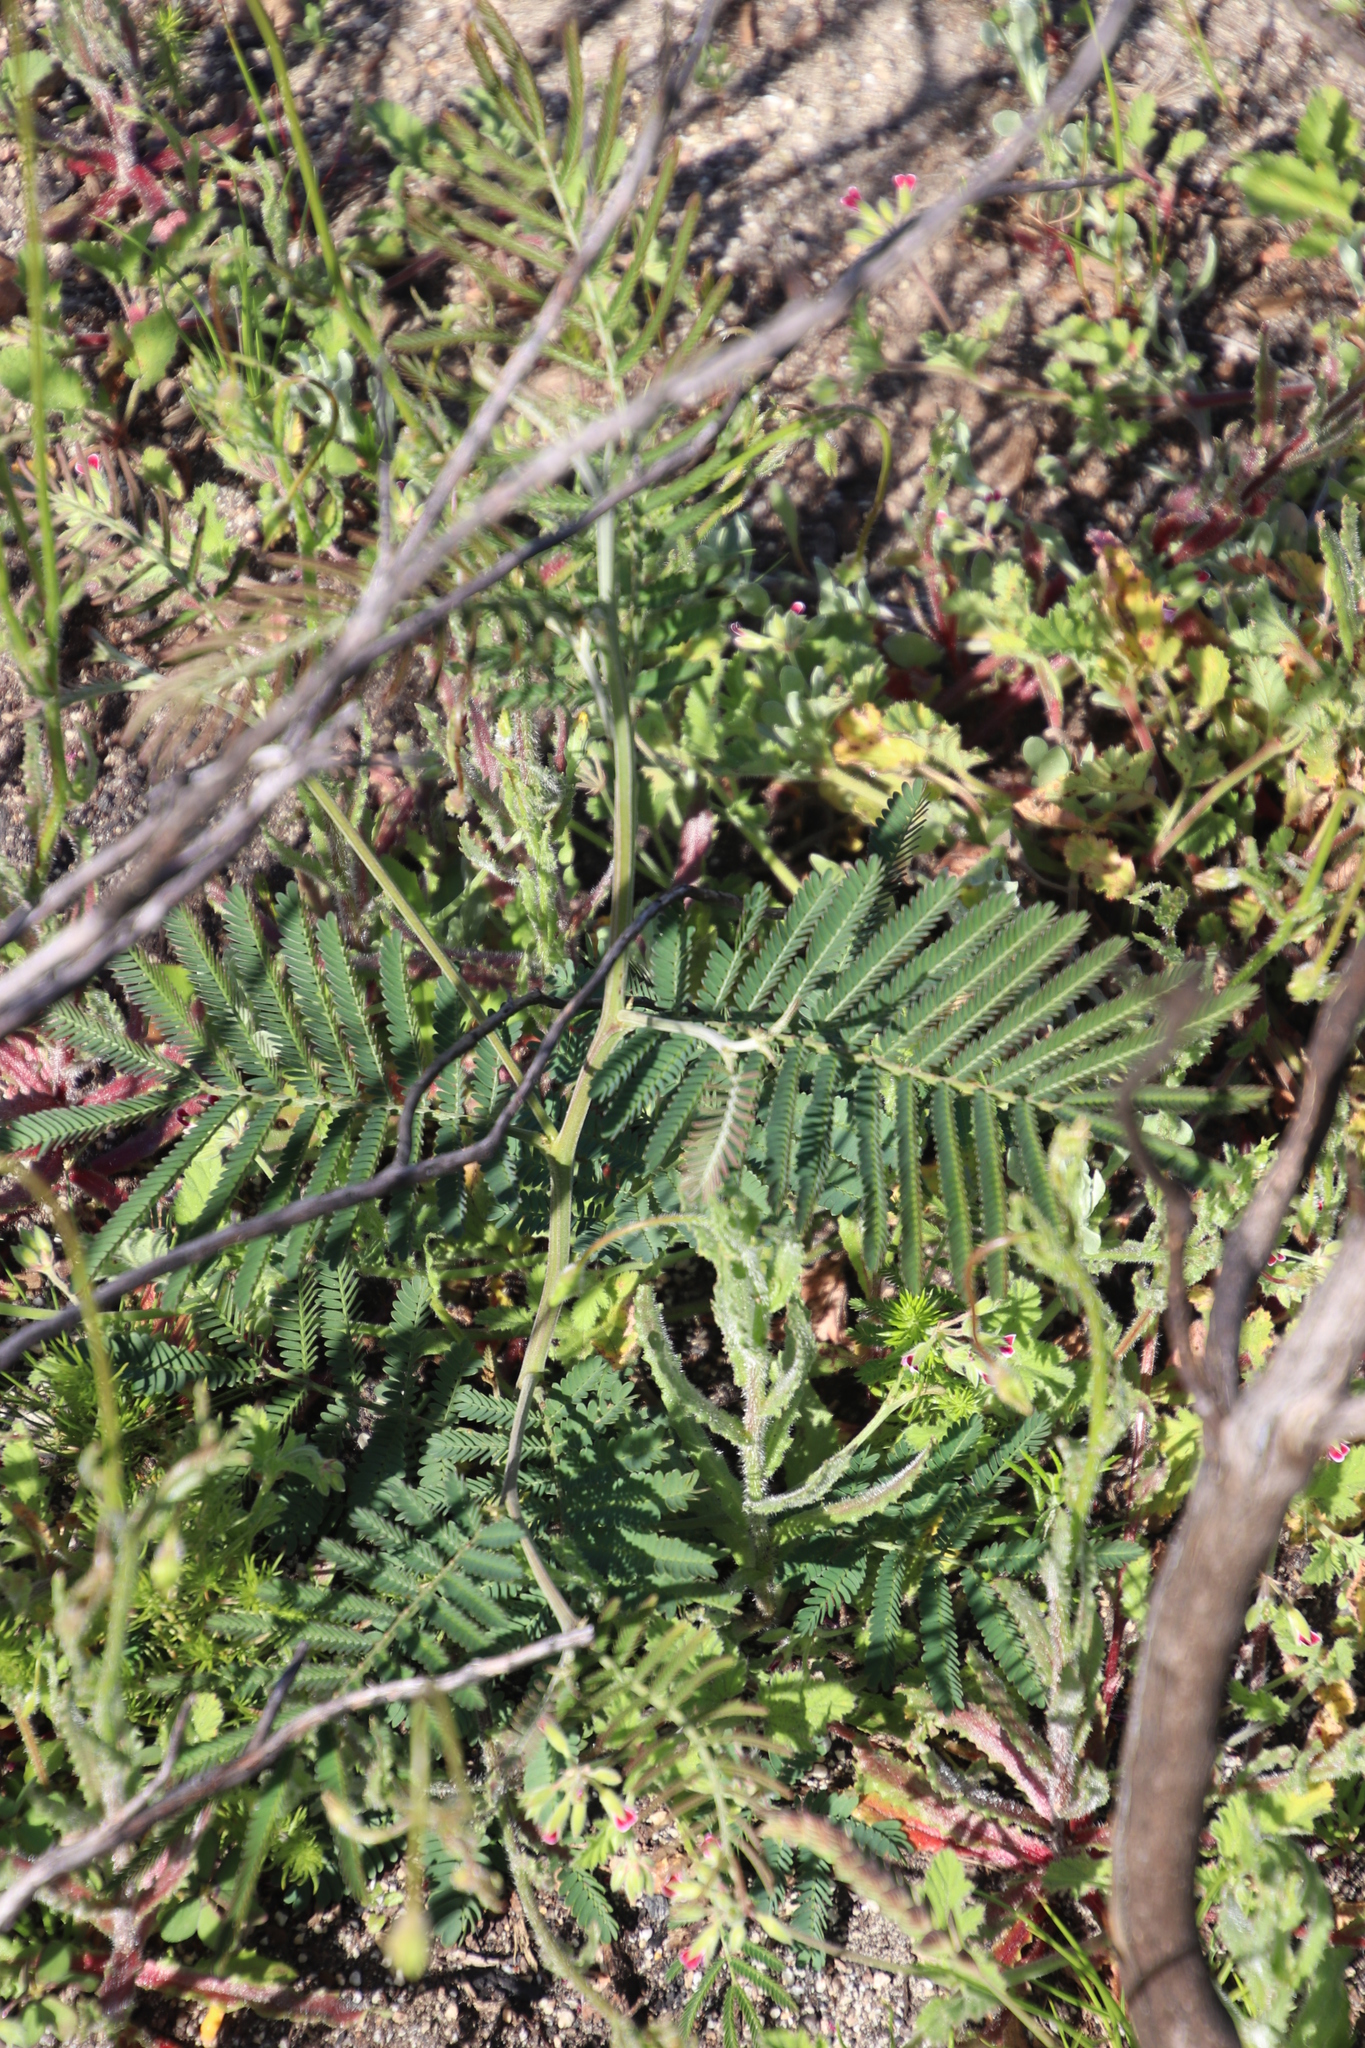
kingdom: Plantae
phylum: Tracheophyta
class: Magnoliopsida
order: Fabales
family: Fabaceae
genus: Acacia
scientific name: Acacia mearnsii
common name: Black wattle
